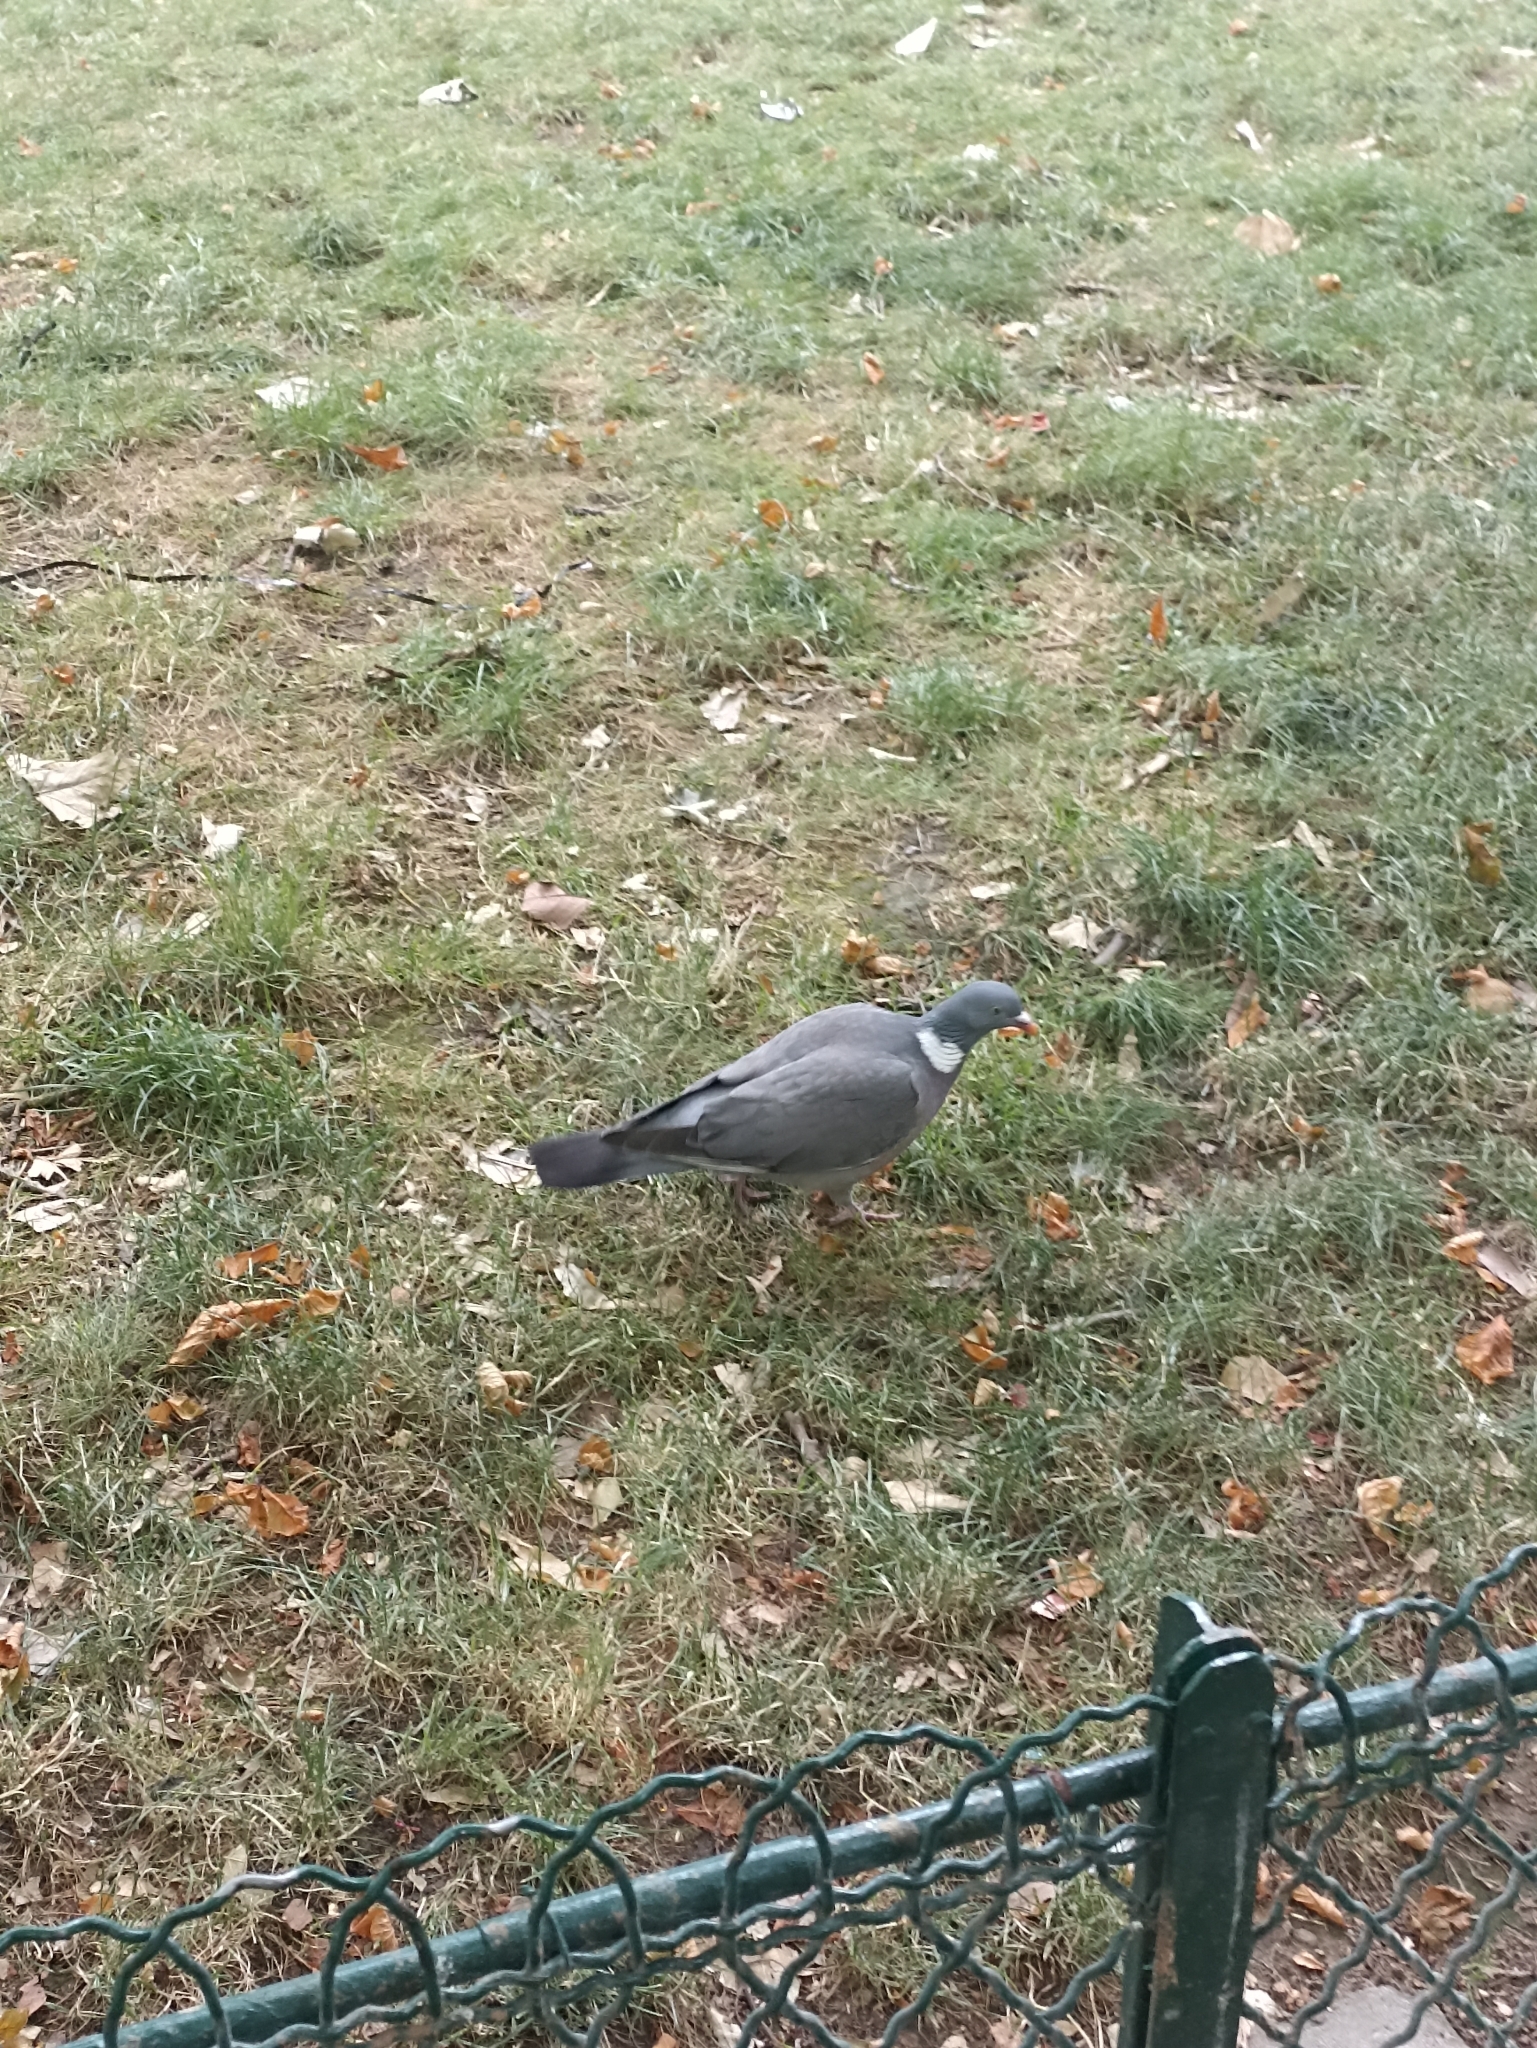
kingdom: Animalia
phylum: Chordata
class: Aves
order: Columbiformes
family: Columbidae
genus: Columba
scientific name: Columba palumbus
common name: Common wood pigeon
